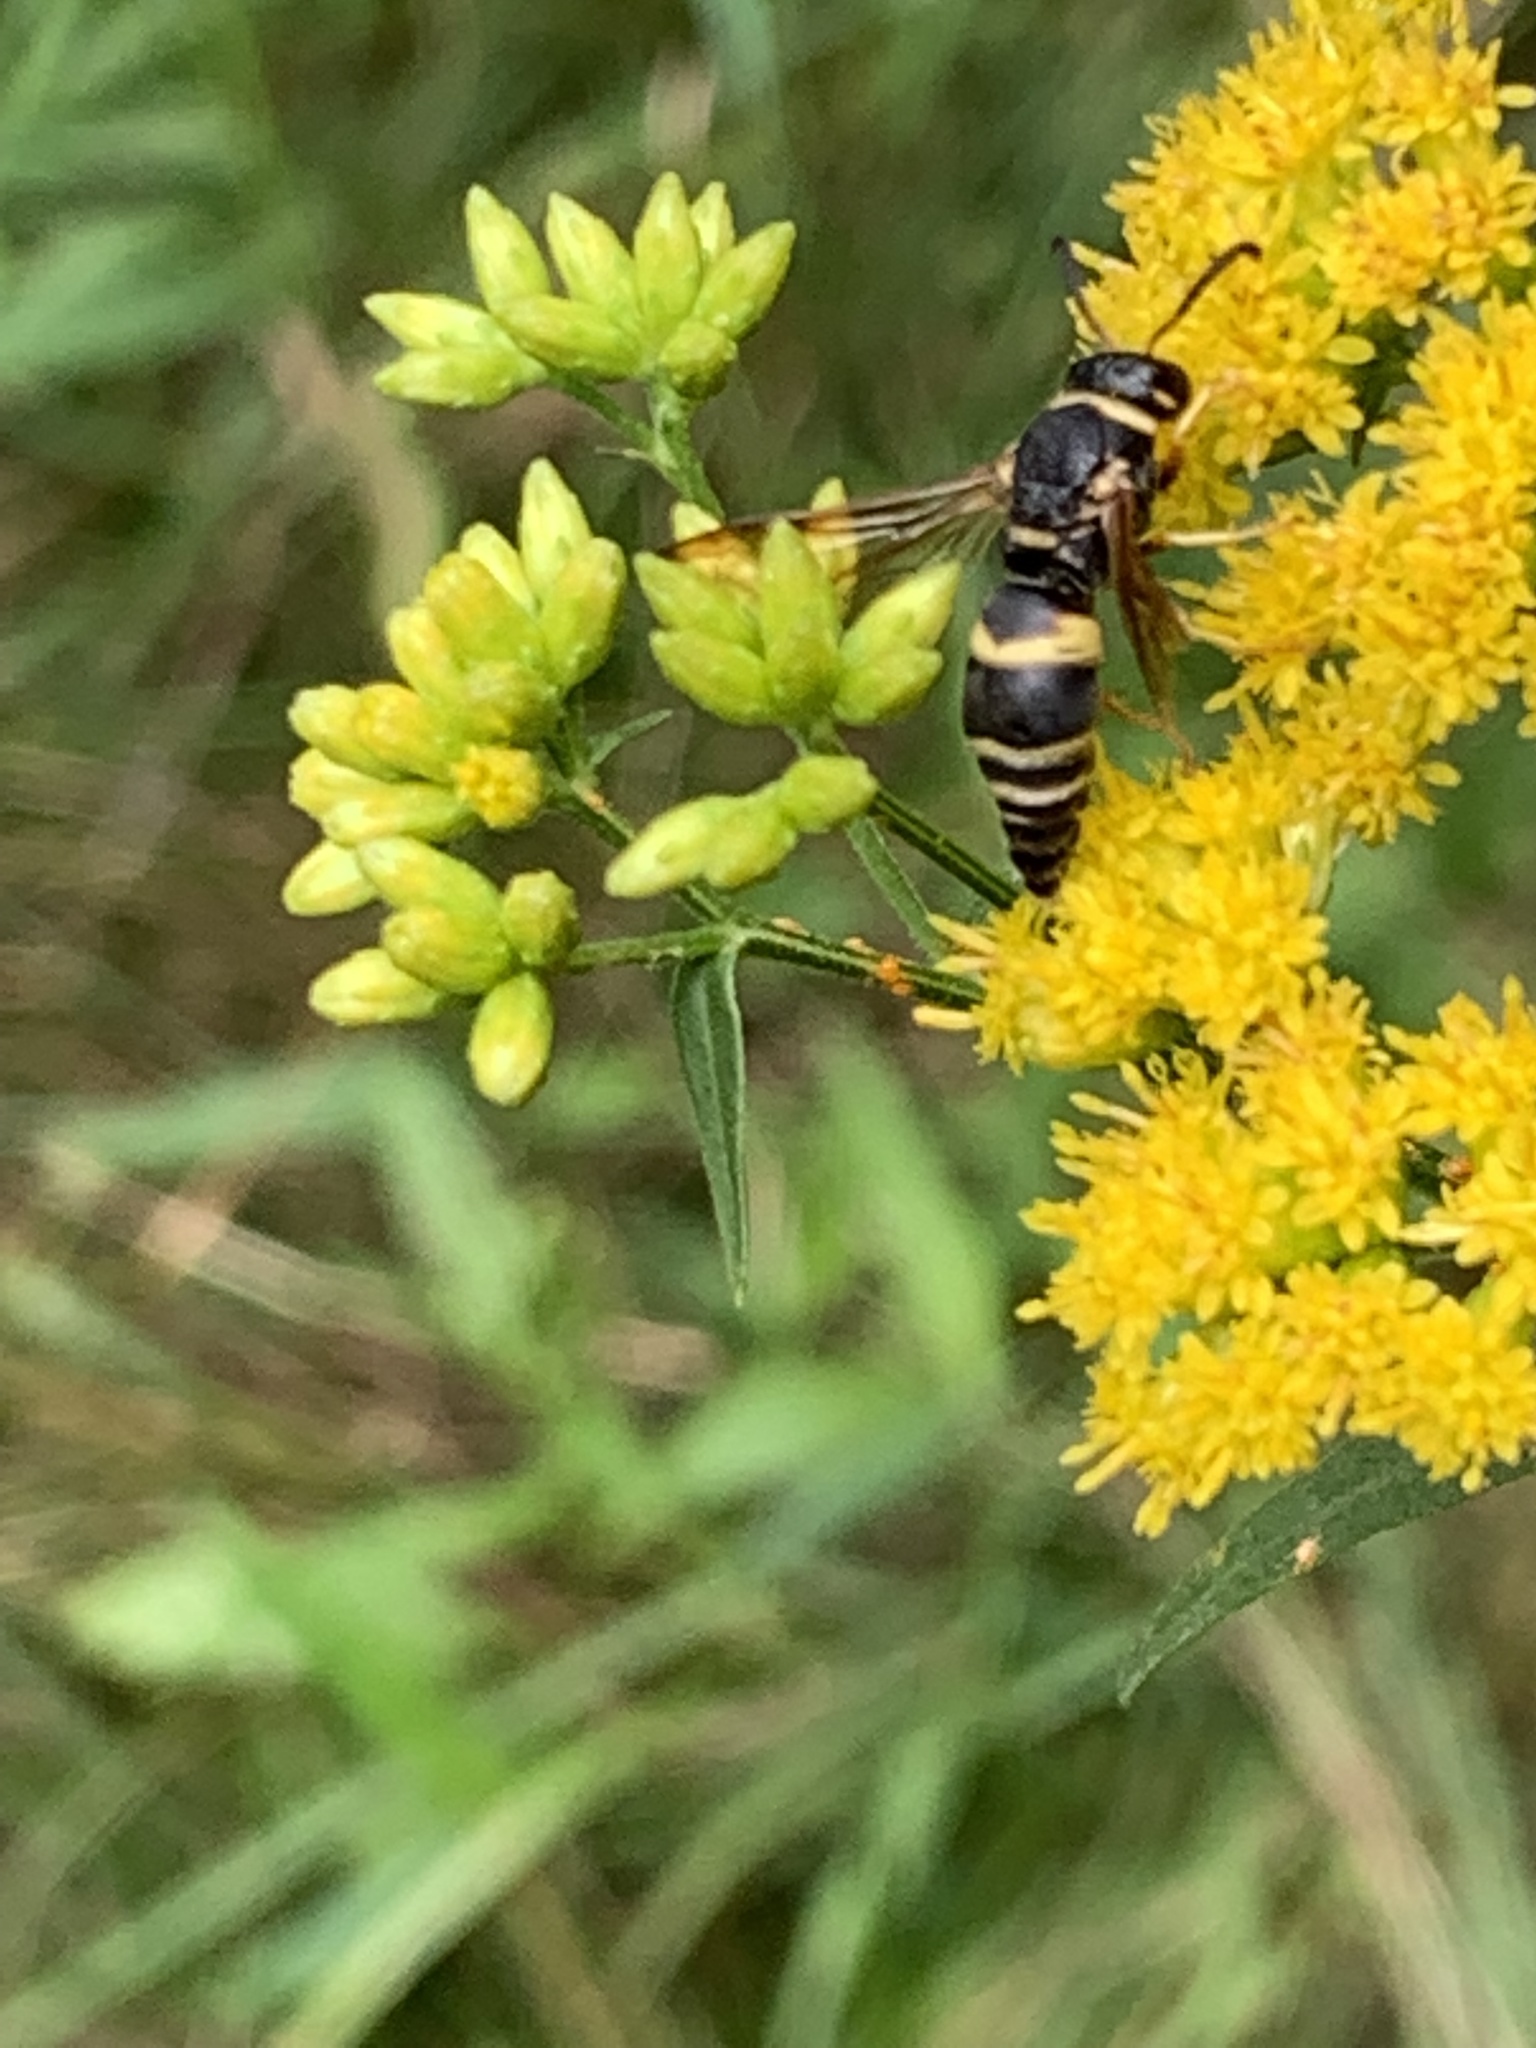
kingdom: Animalia
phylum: Arthropoda
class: Insecta
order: Hymenoptera
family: Eumenidae
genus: Euodynerus
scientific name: Euodynerus hidalgo
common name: Wasp
